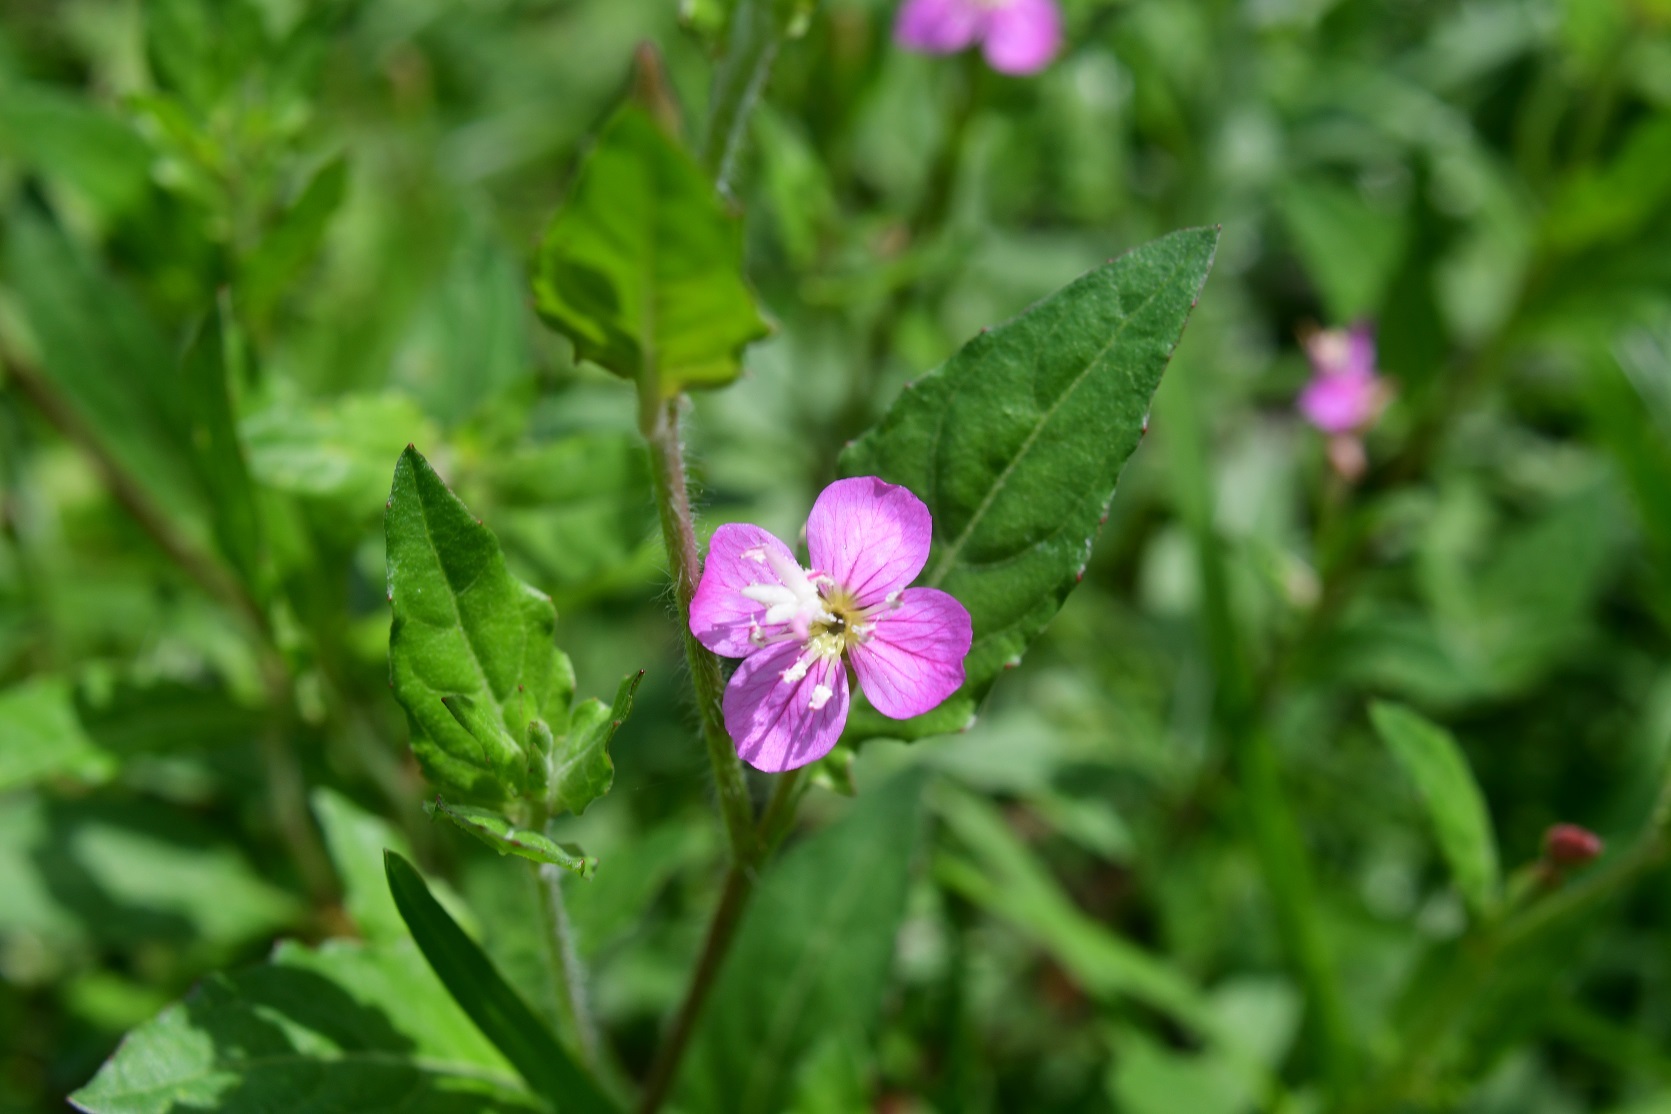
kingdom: Plantae
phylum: Tracheophyta
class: Magnoliopsida
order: Myrtales
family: Onagraceae
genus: Oenothera
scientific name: Oenothera rosea
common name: Rosy evening-primrose
